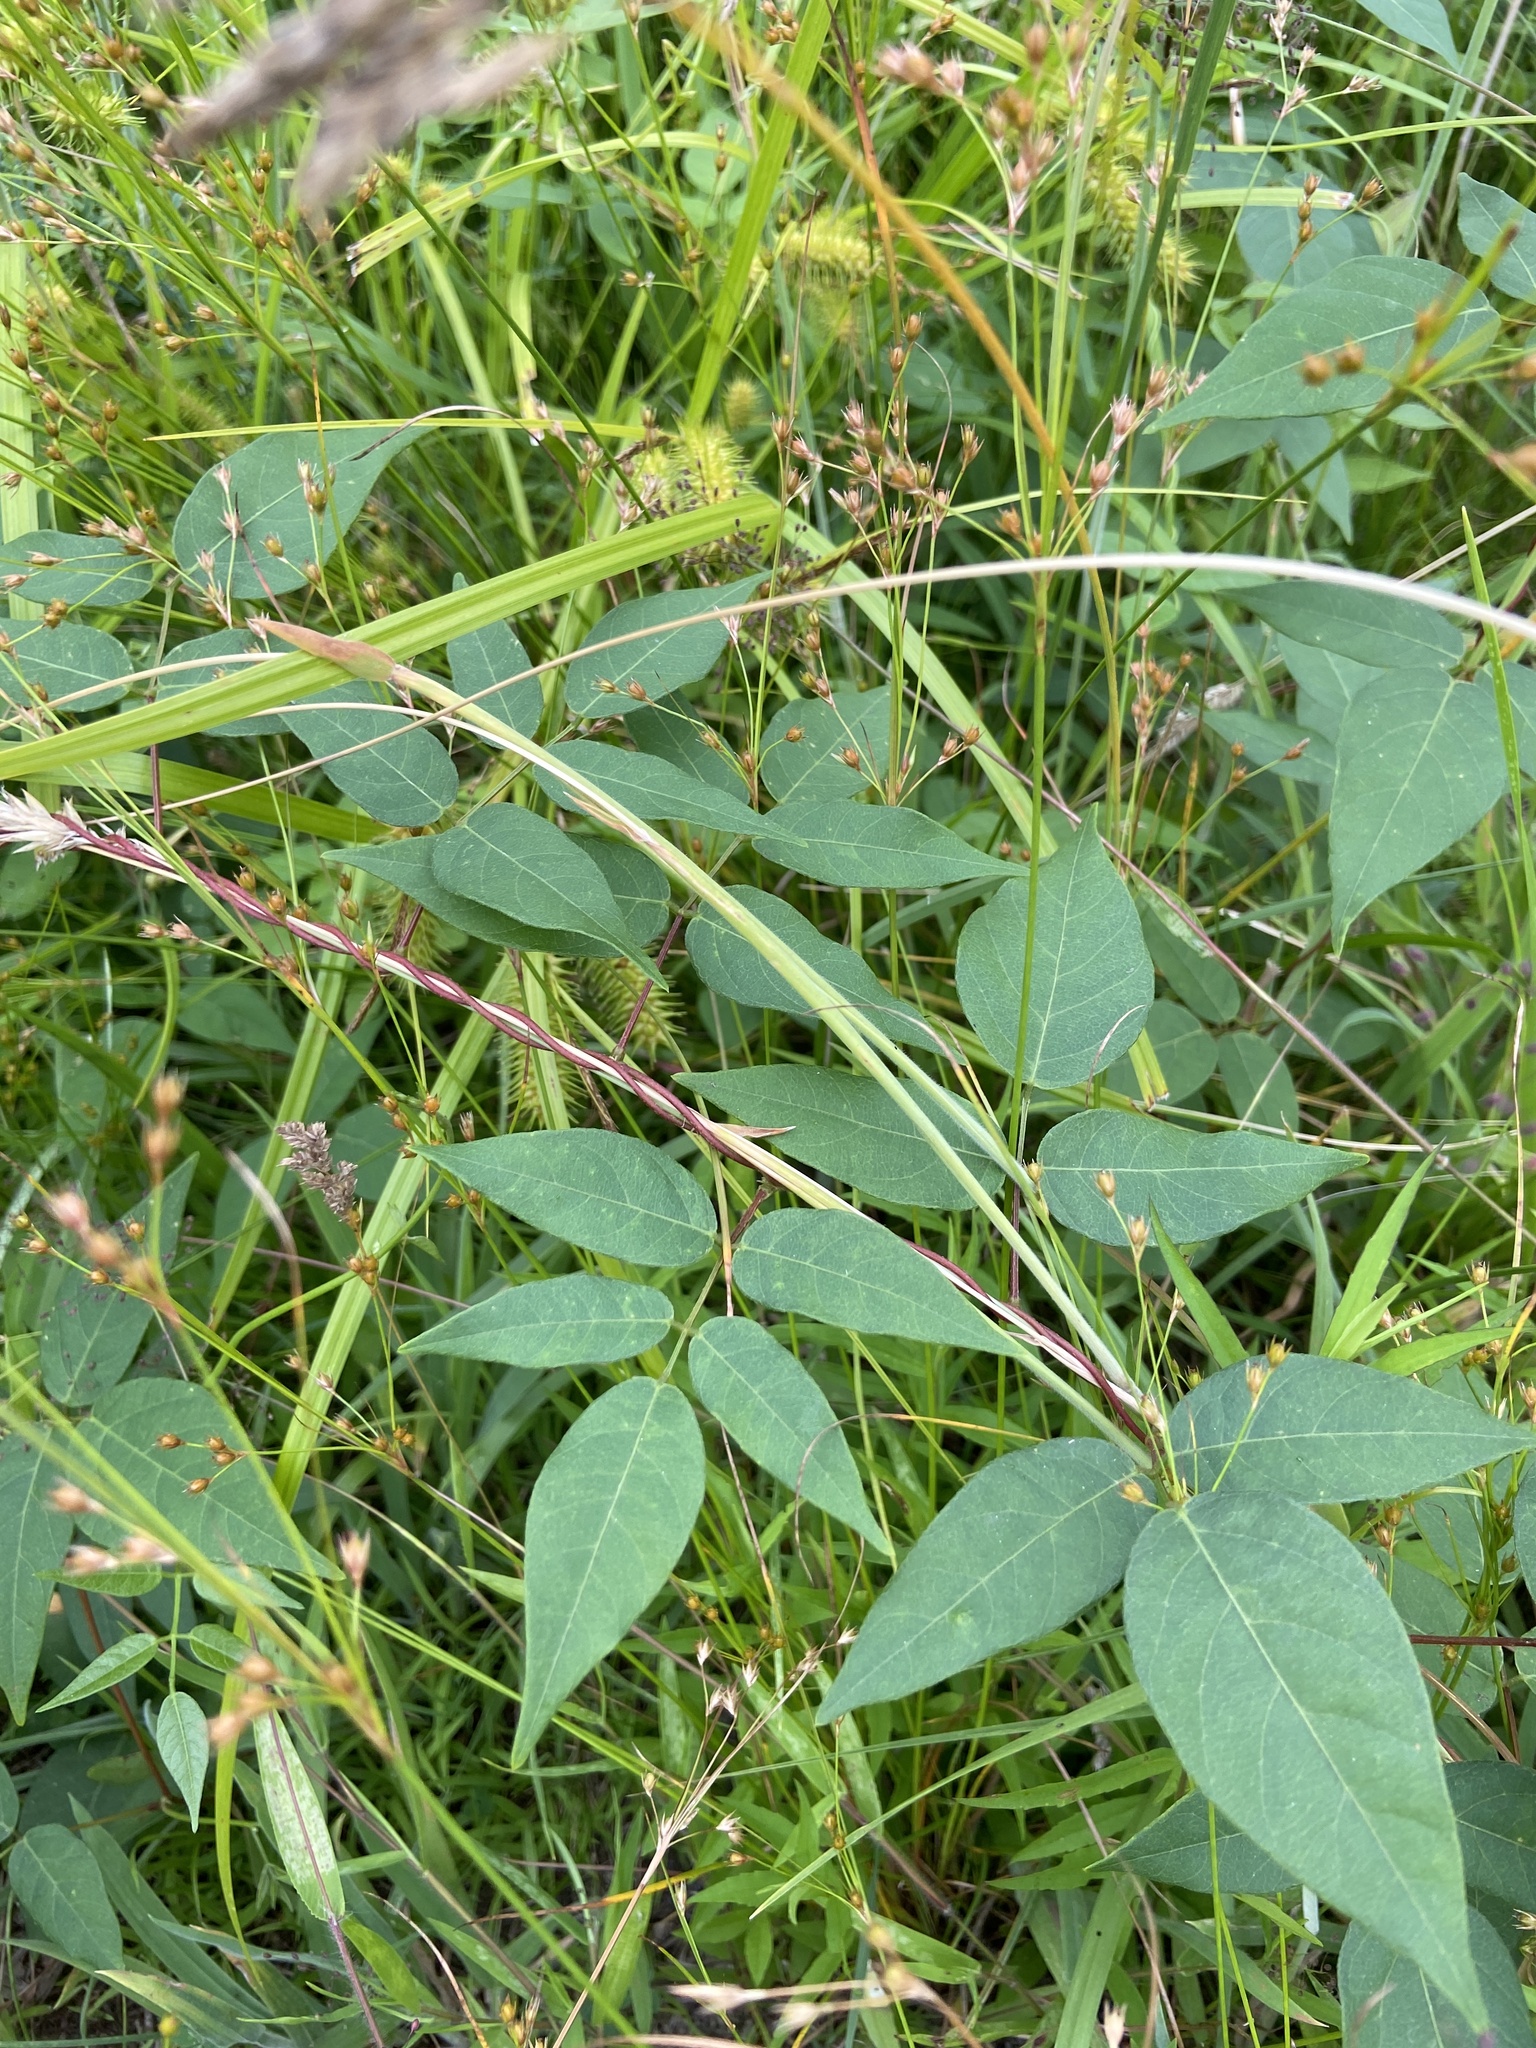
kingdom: Plantae
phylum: Tracheophyta
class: Magnoliopsida
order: Fabales
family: Fabaceae
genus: Apios
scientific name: Apios americana
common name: American potato-bean
